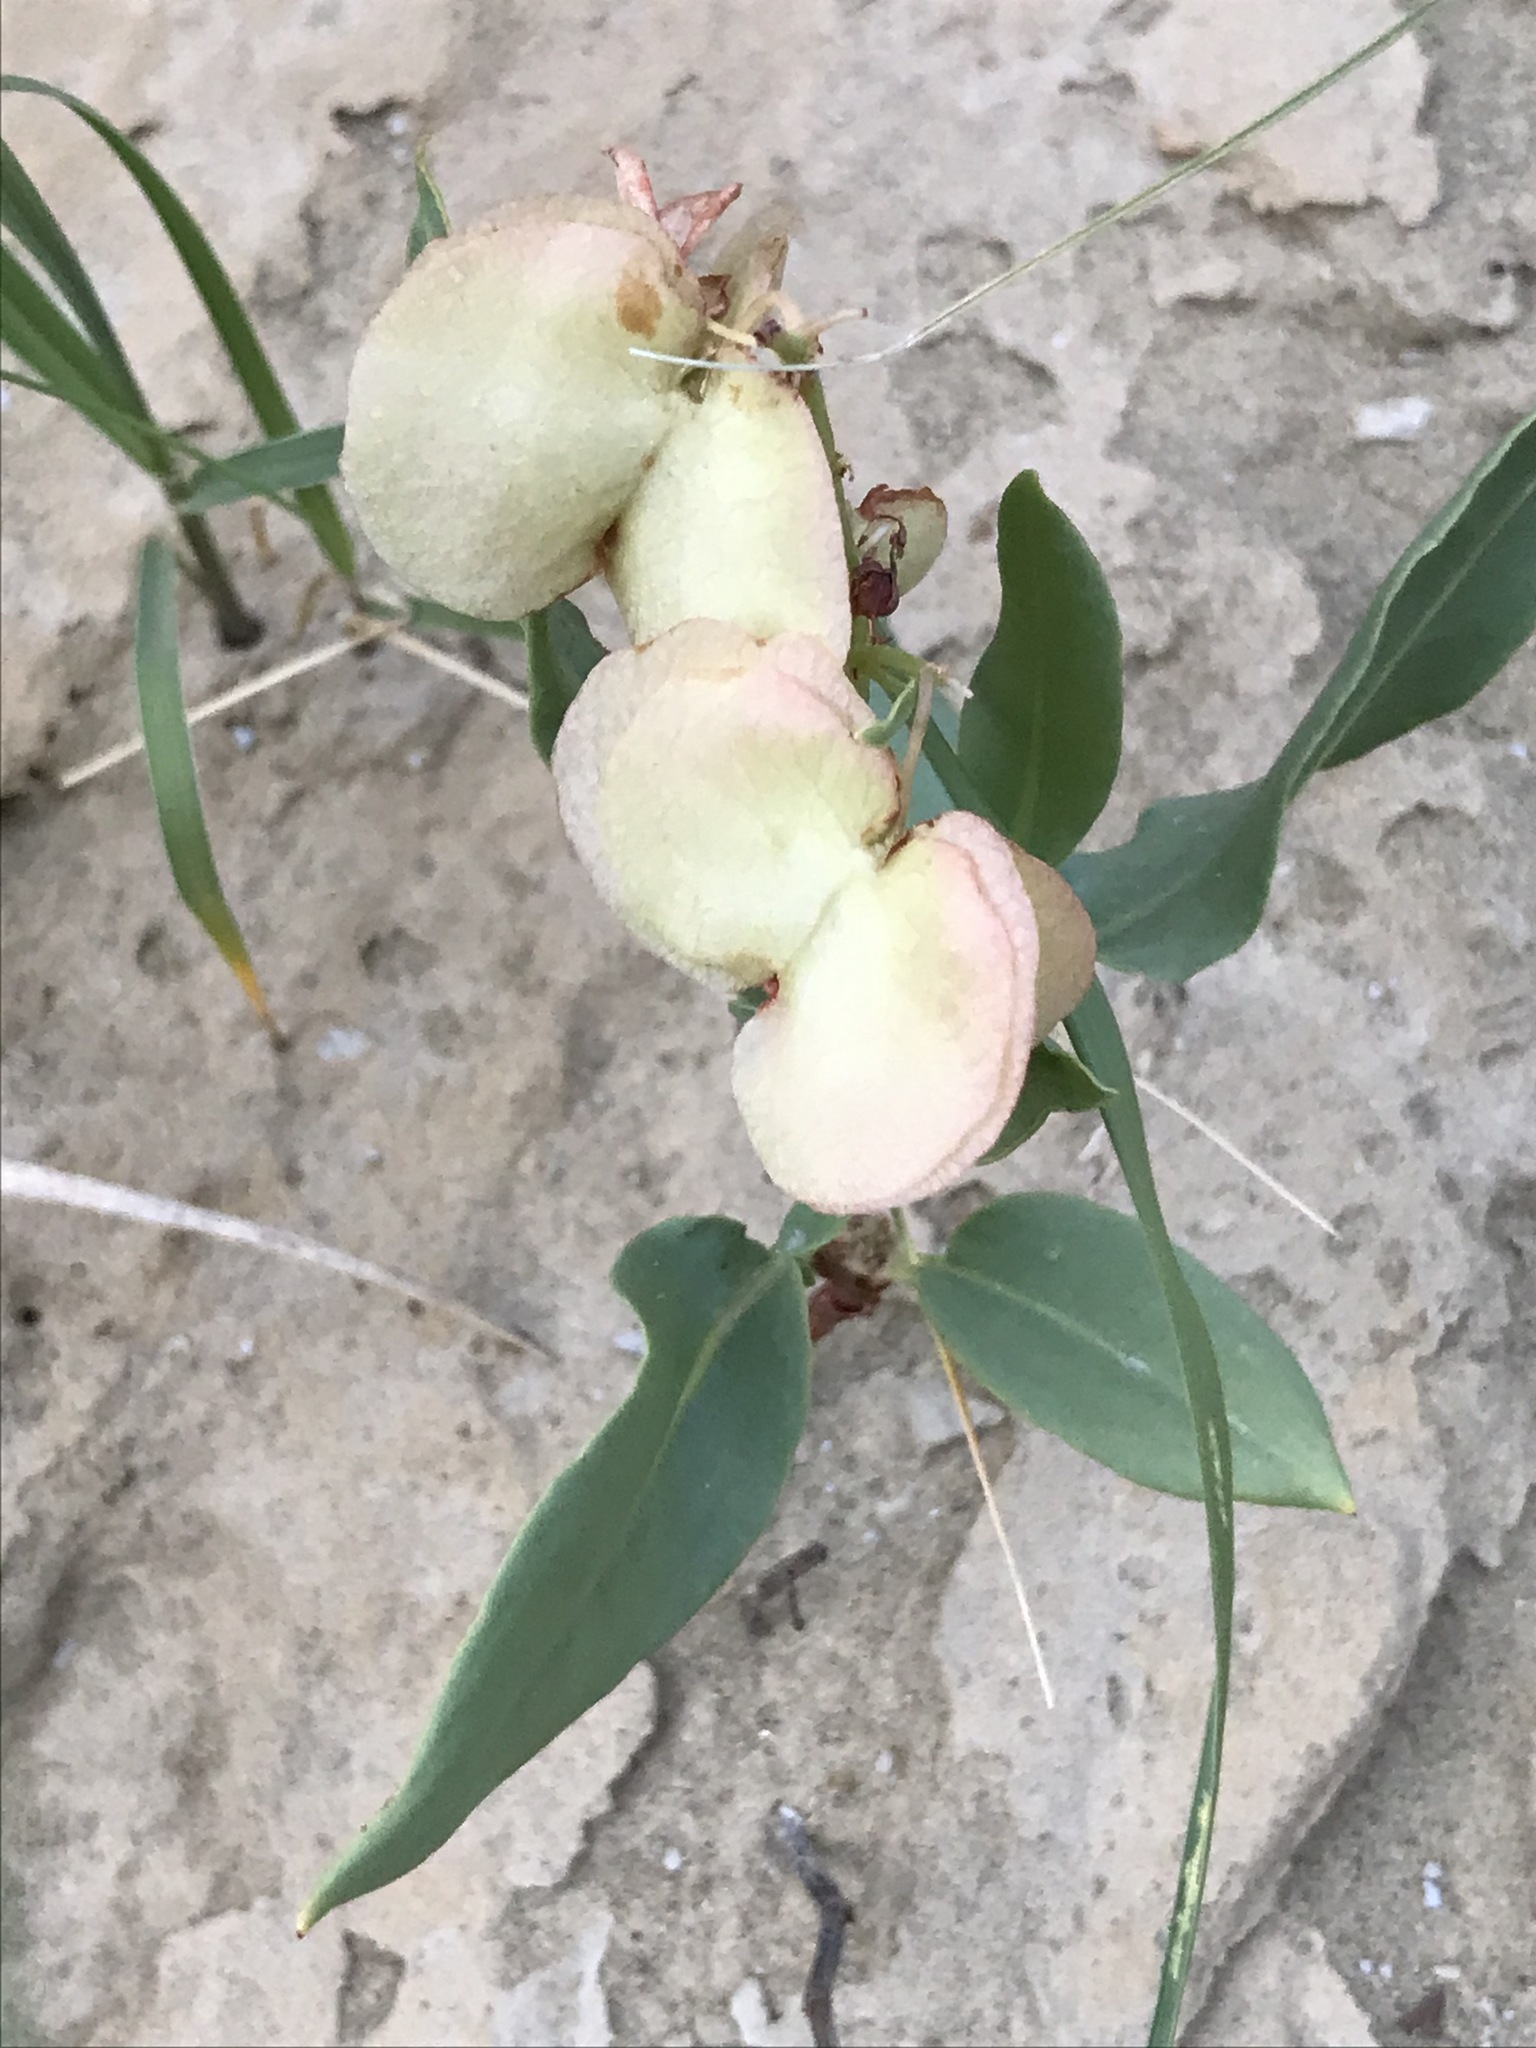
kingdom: Plantae
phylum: Tracheophyta
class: Magnoliopsida
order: Caryophyllales
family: Polygonaceae
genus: Rumex
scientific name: Rumex venosus
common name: Winged dock
